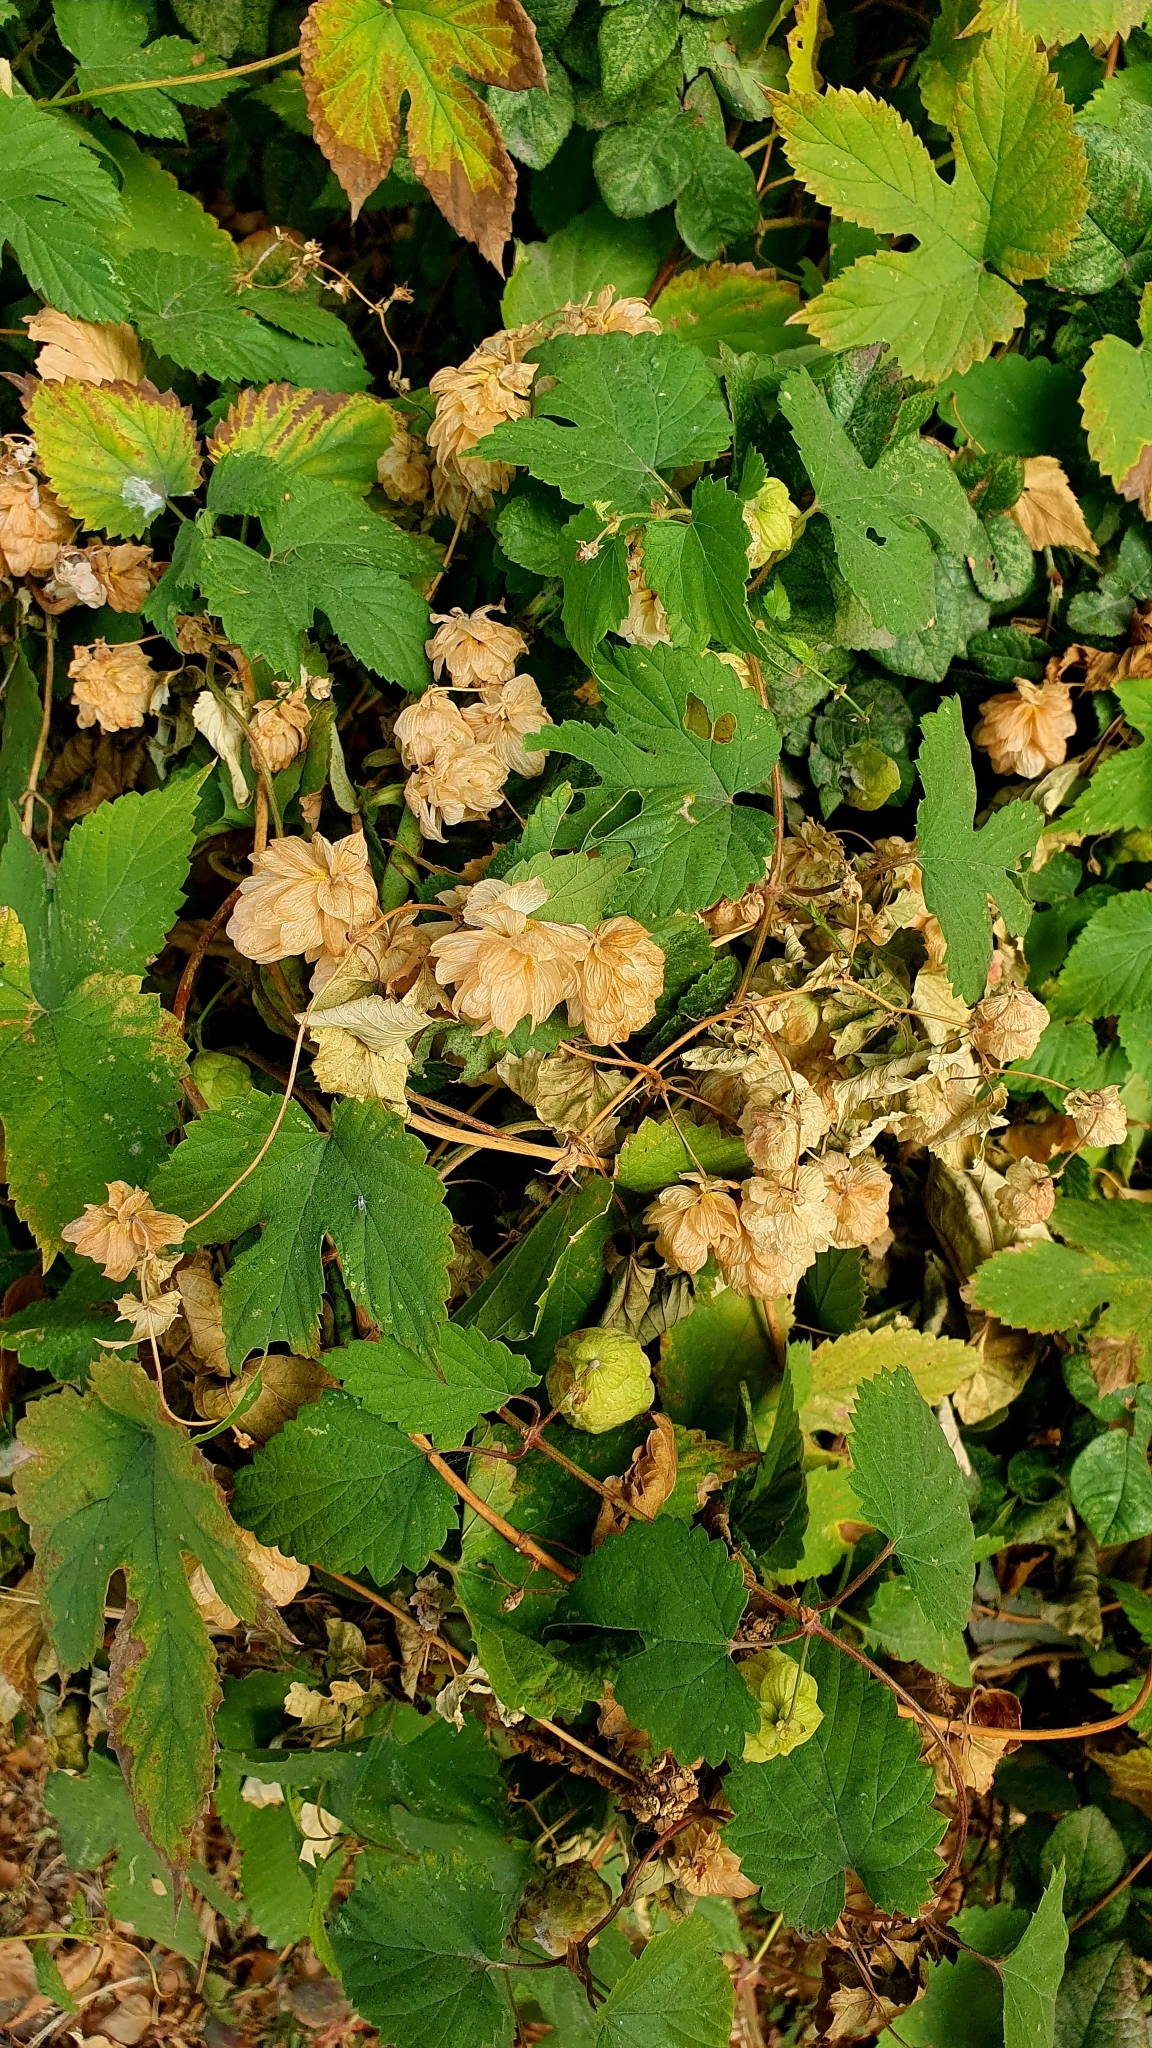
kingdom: Plantae
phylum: Tracheophyta
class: Magnoliopsida
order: Rosales
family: Cannabaceae
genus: Humulus
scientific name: Humulus lupulus
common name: Hop
